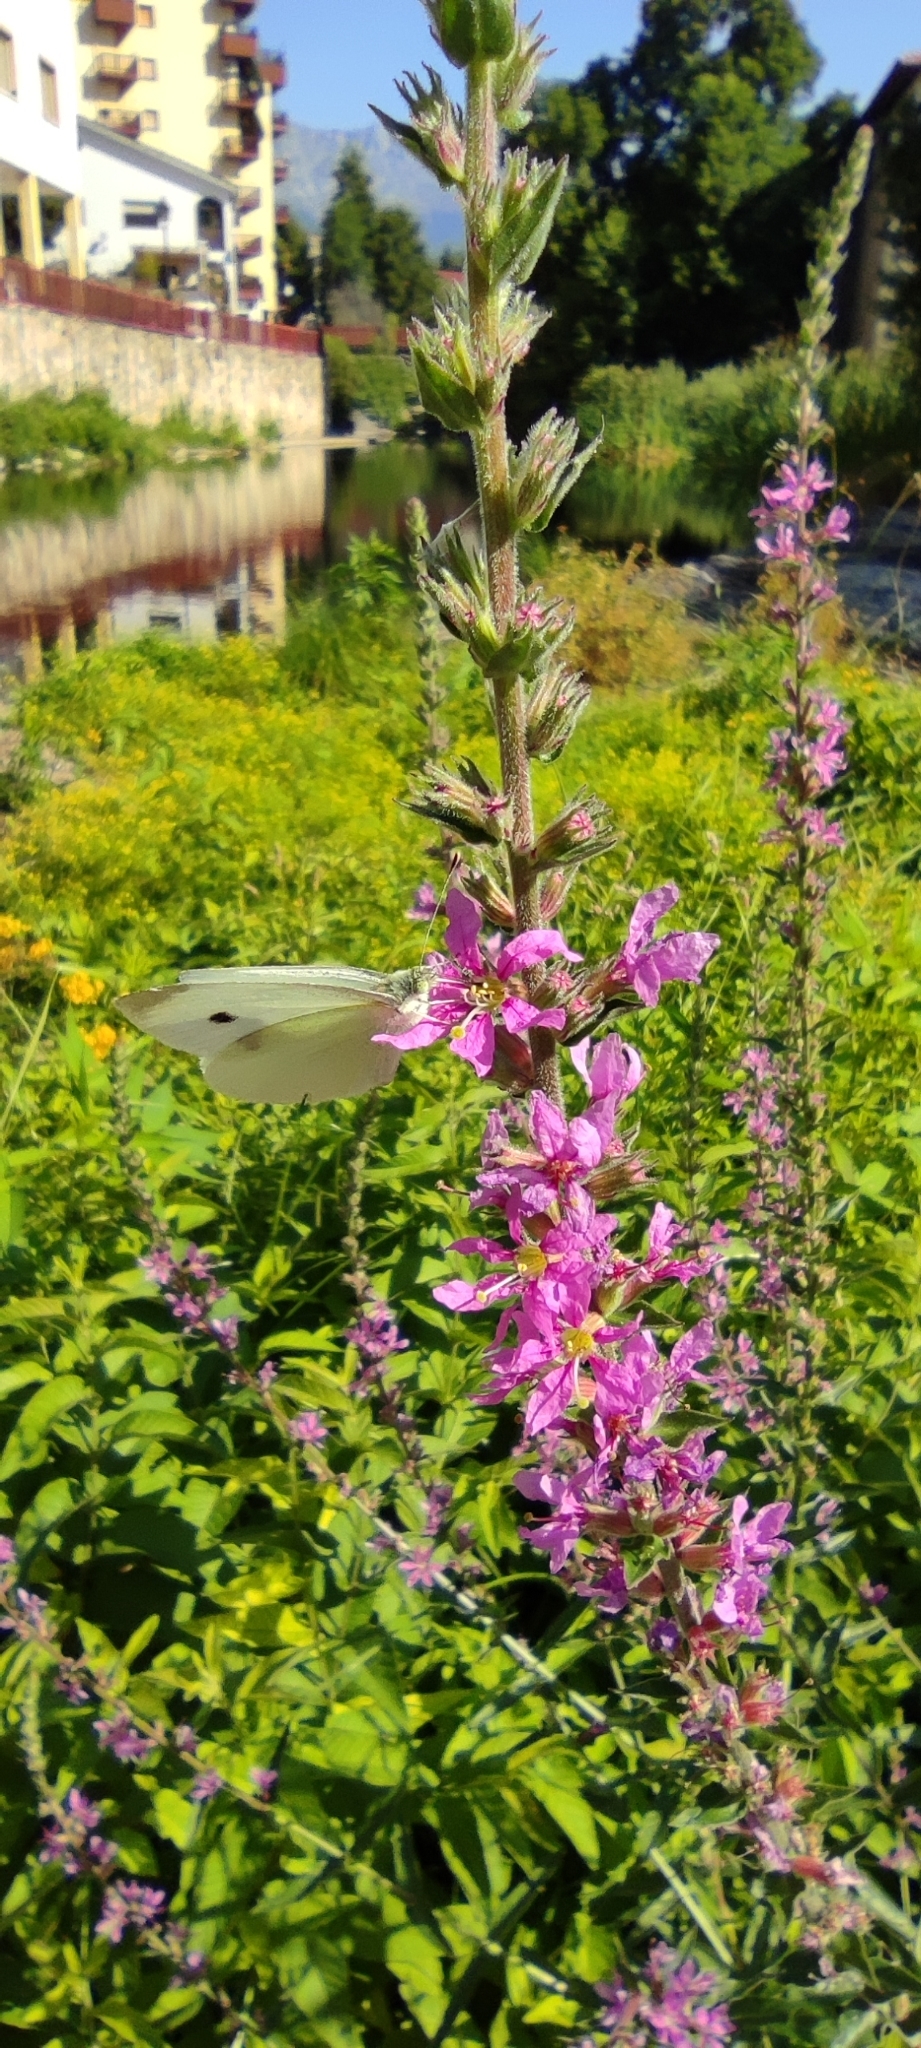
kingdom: Plantae
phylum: Tracheophyta
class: Magnoliopsida
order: Myrtales
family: Lythraceae
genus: Lythrum
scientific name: Lythrum salicaria
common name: Purple loosestrife
